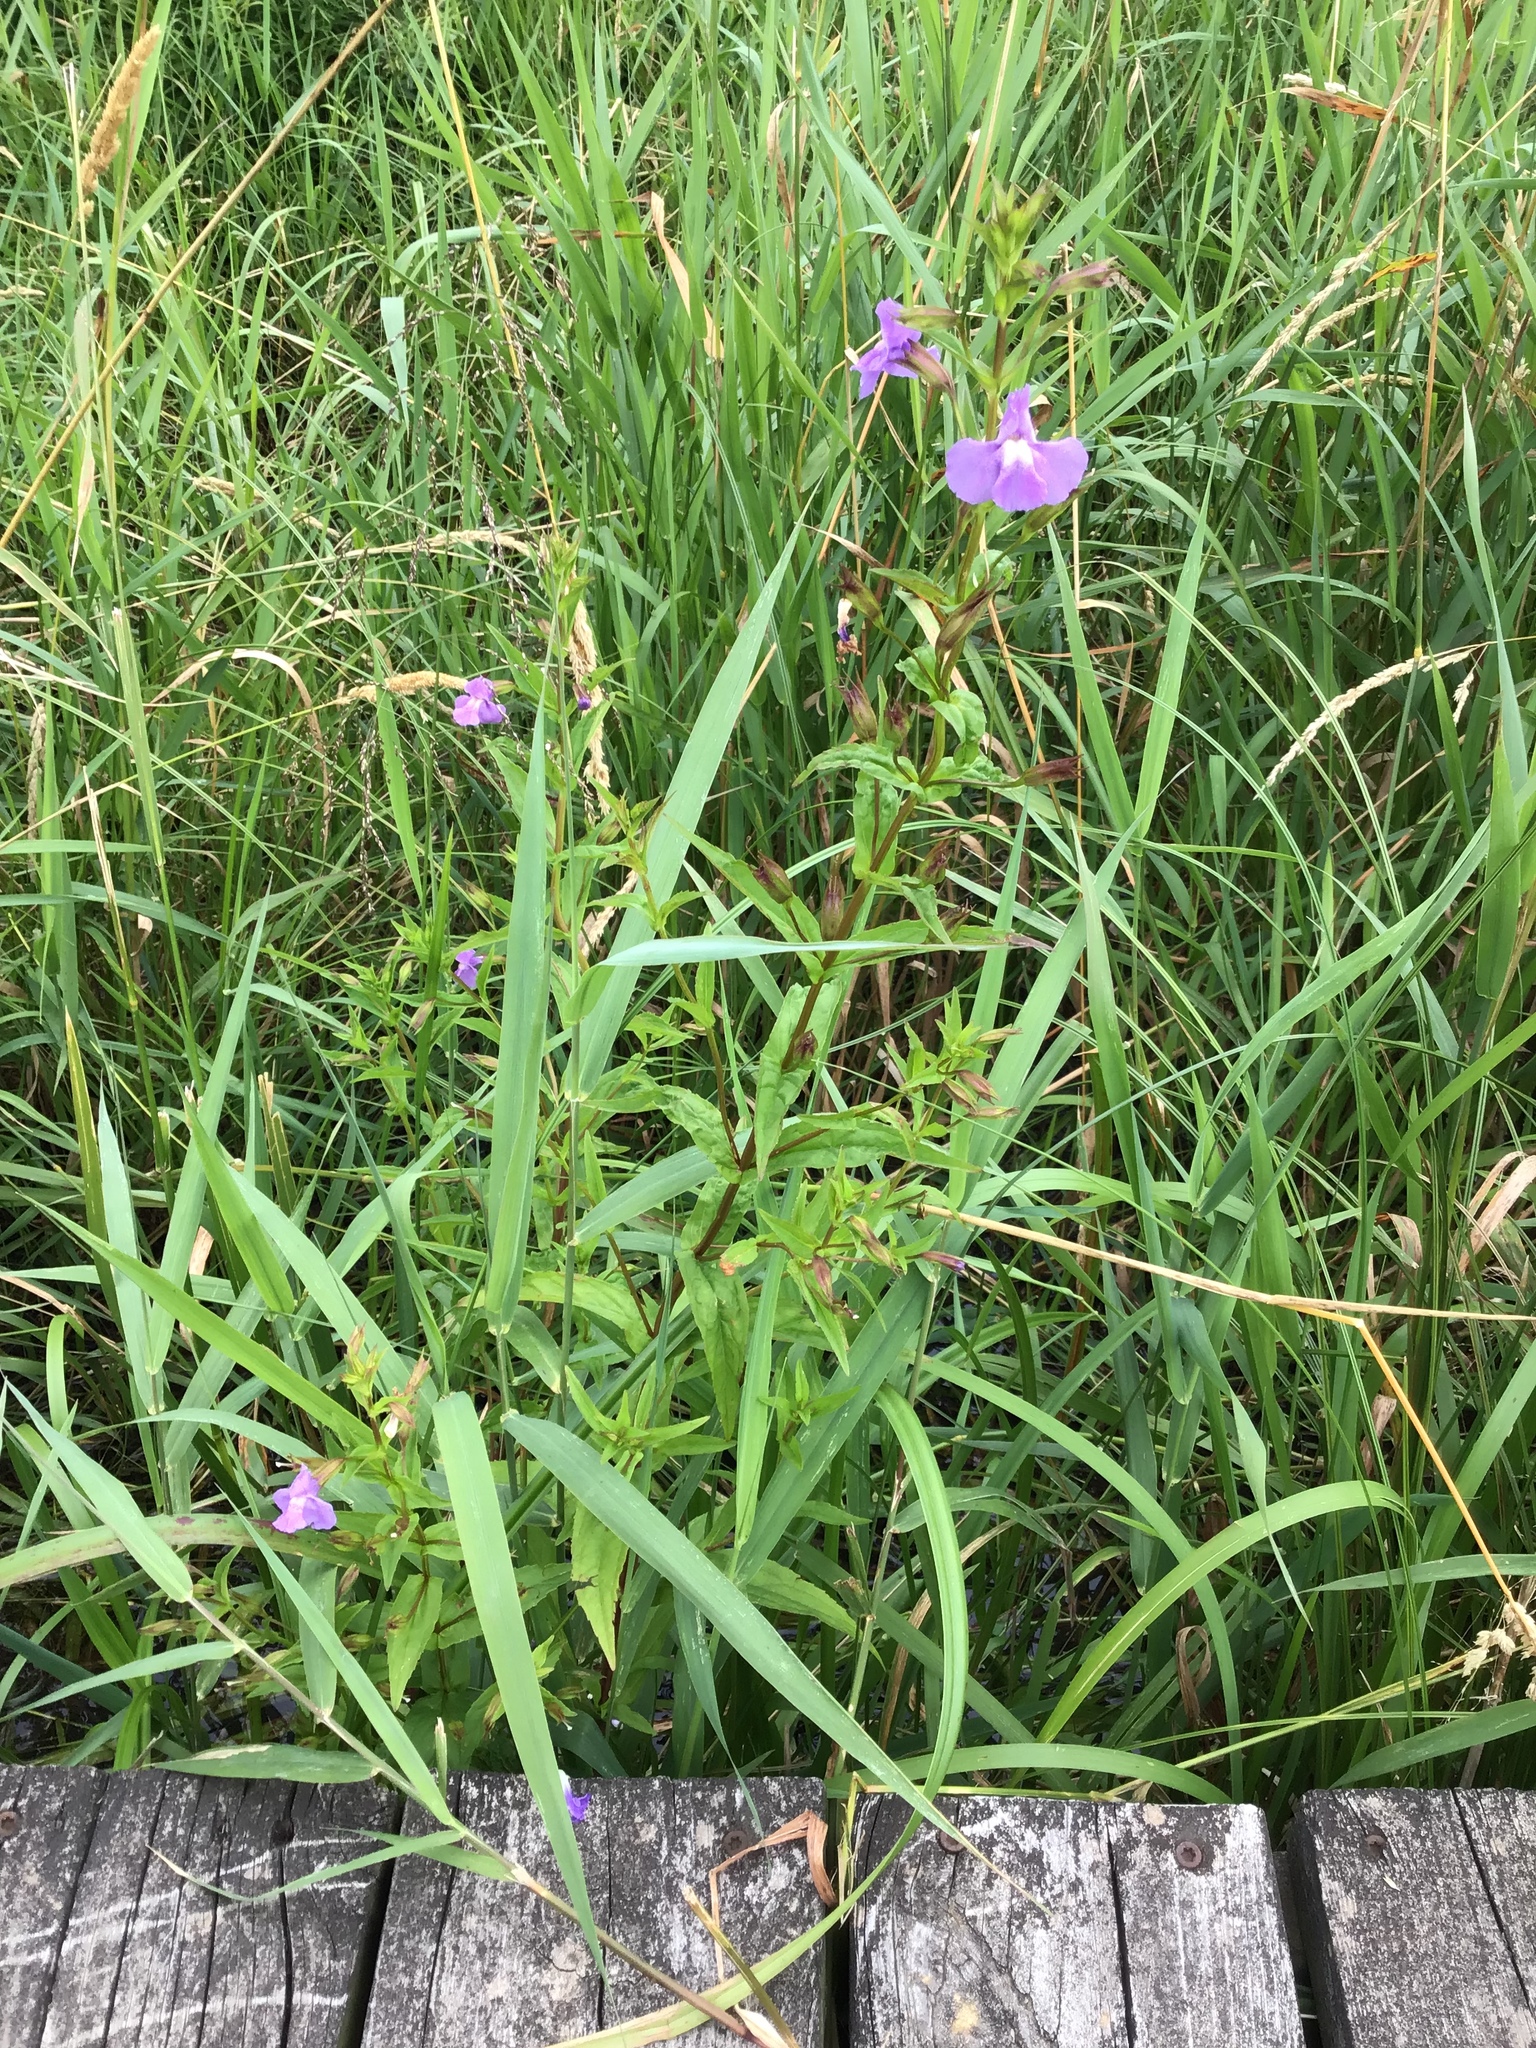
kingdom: Plantae
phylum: Tracheophyta
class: Magnoliopsida
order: Lamiales
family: Phrymaceae
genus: Mimulus
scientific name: Mimulus ringens
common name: Allegheny monkeyflower
